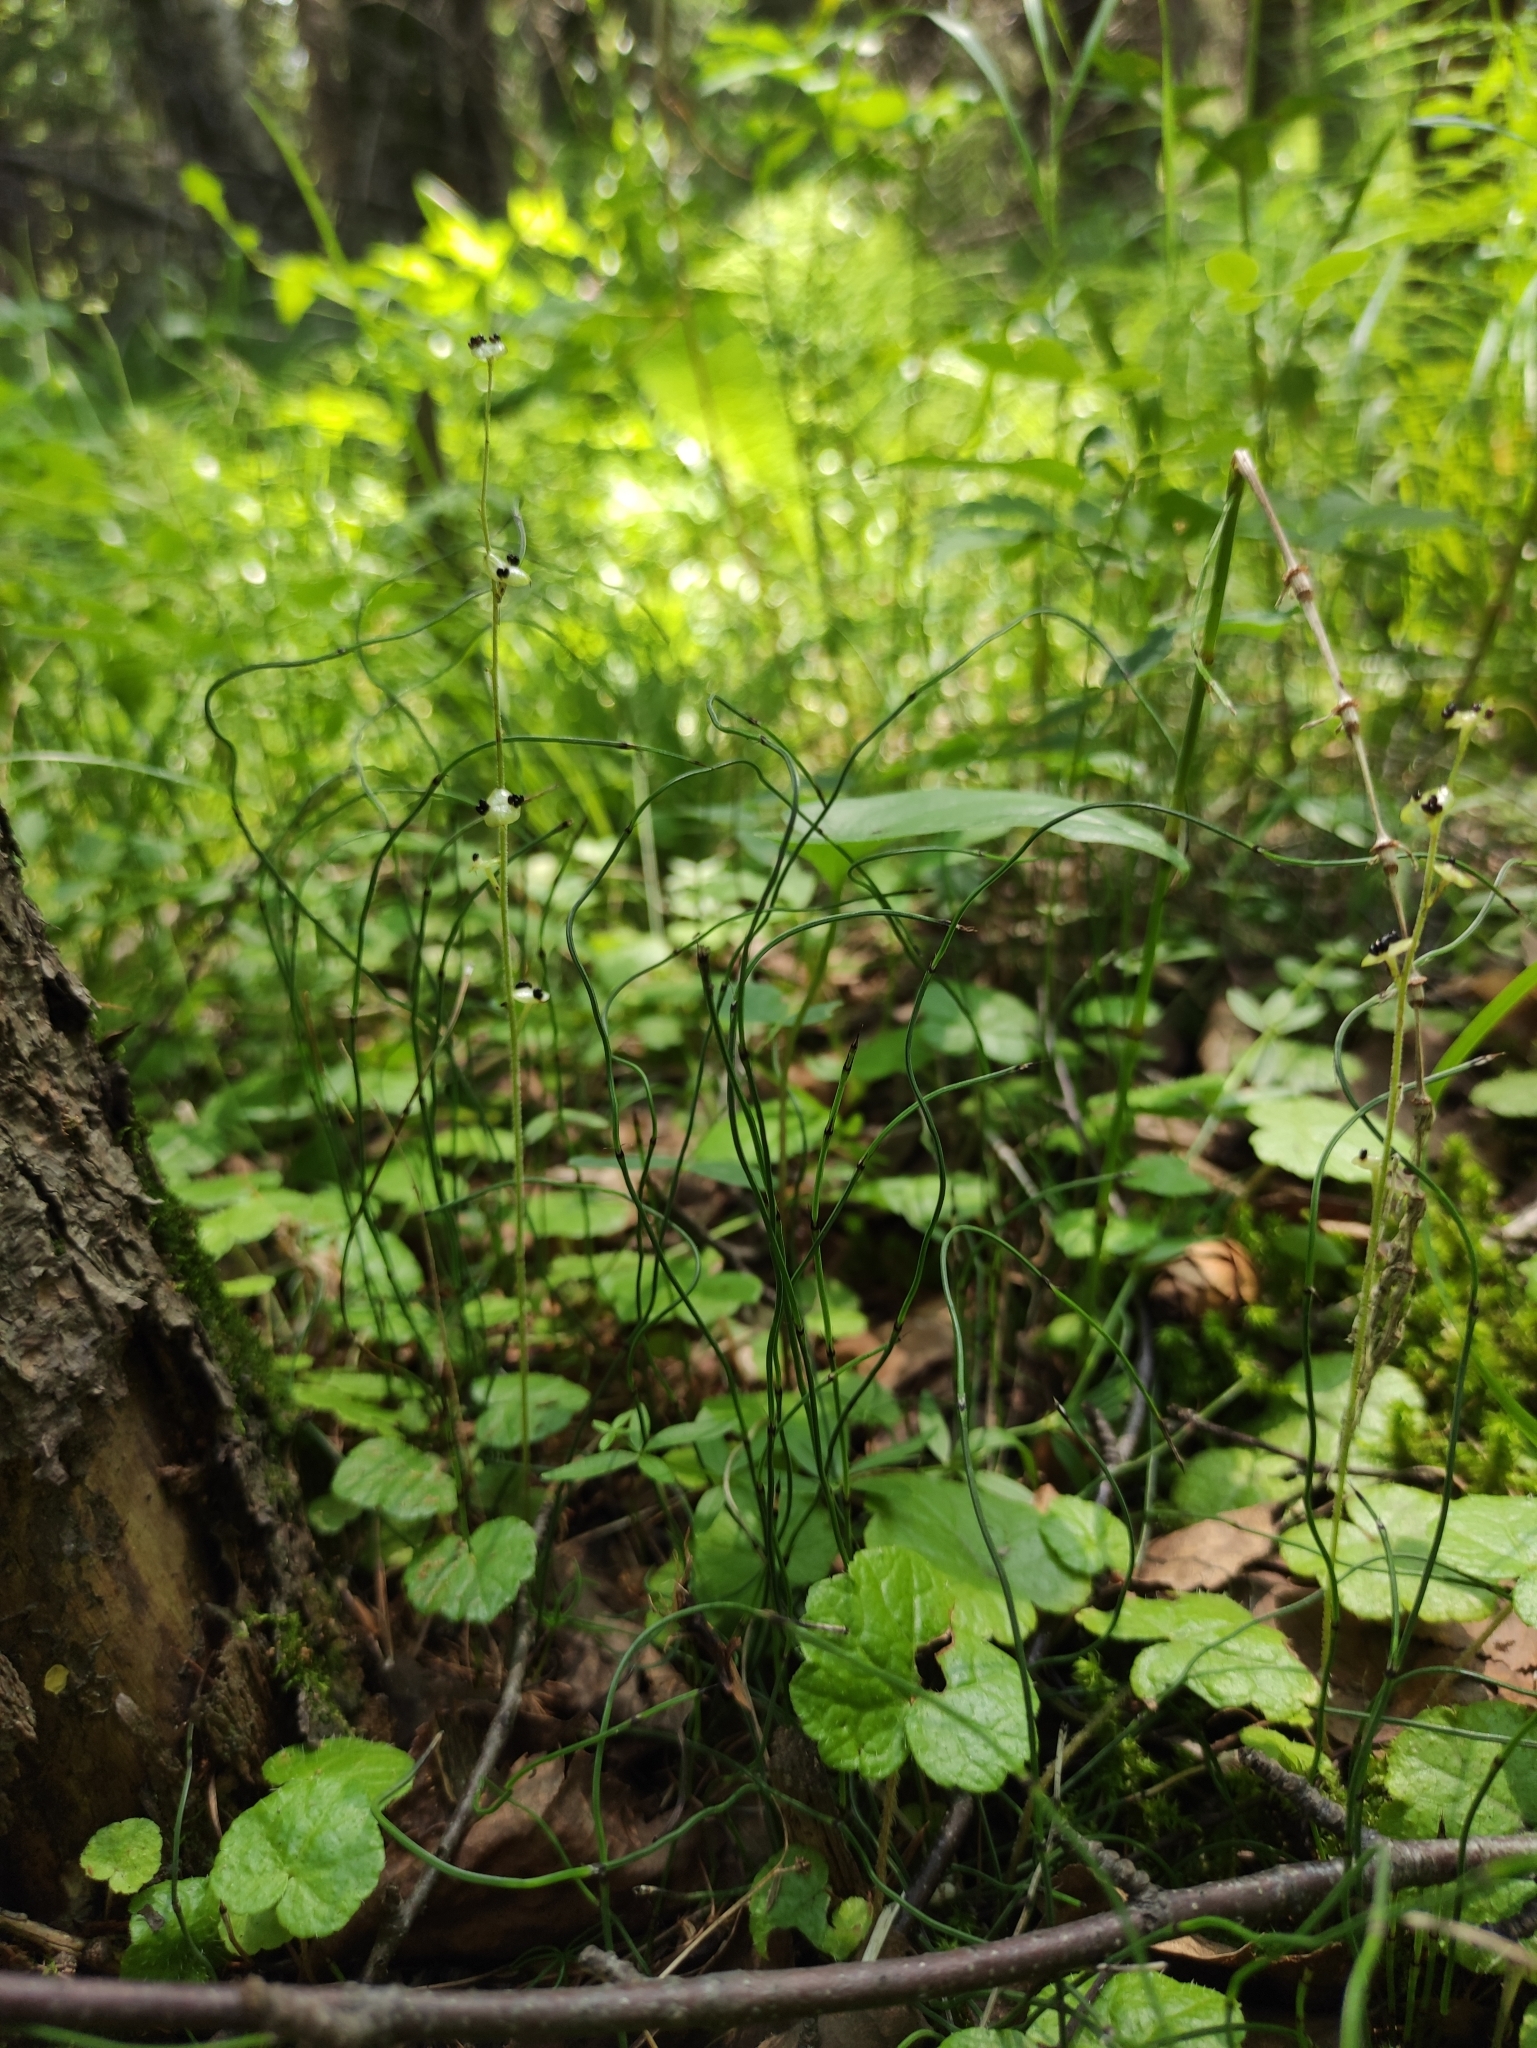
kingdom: Plantae
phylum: Tracheophyta
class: Polypodiopsida
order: Equisetales
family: Equisetaceae
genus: Equisetum
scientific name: Equisetum scirpoides
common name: Delicate horsetail
